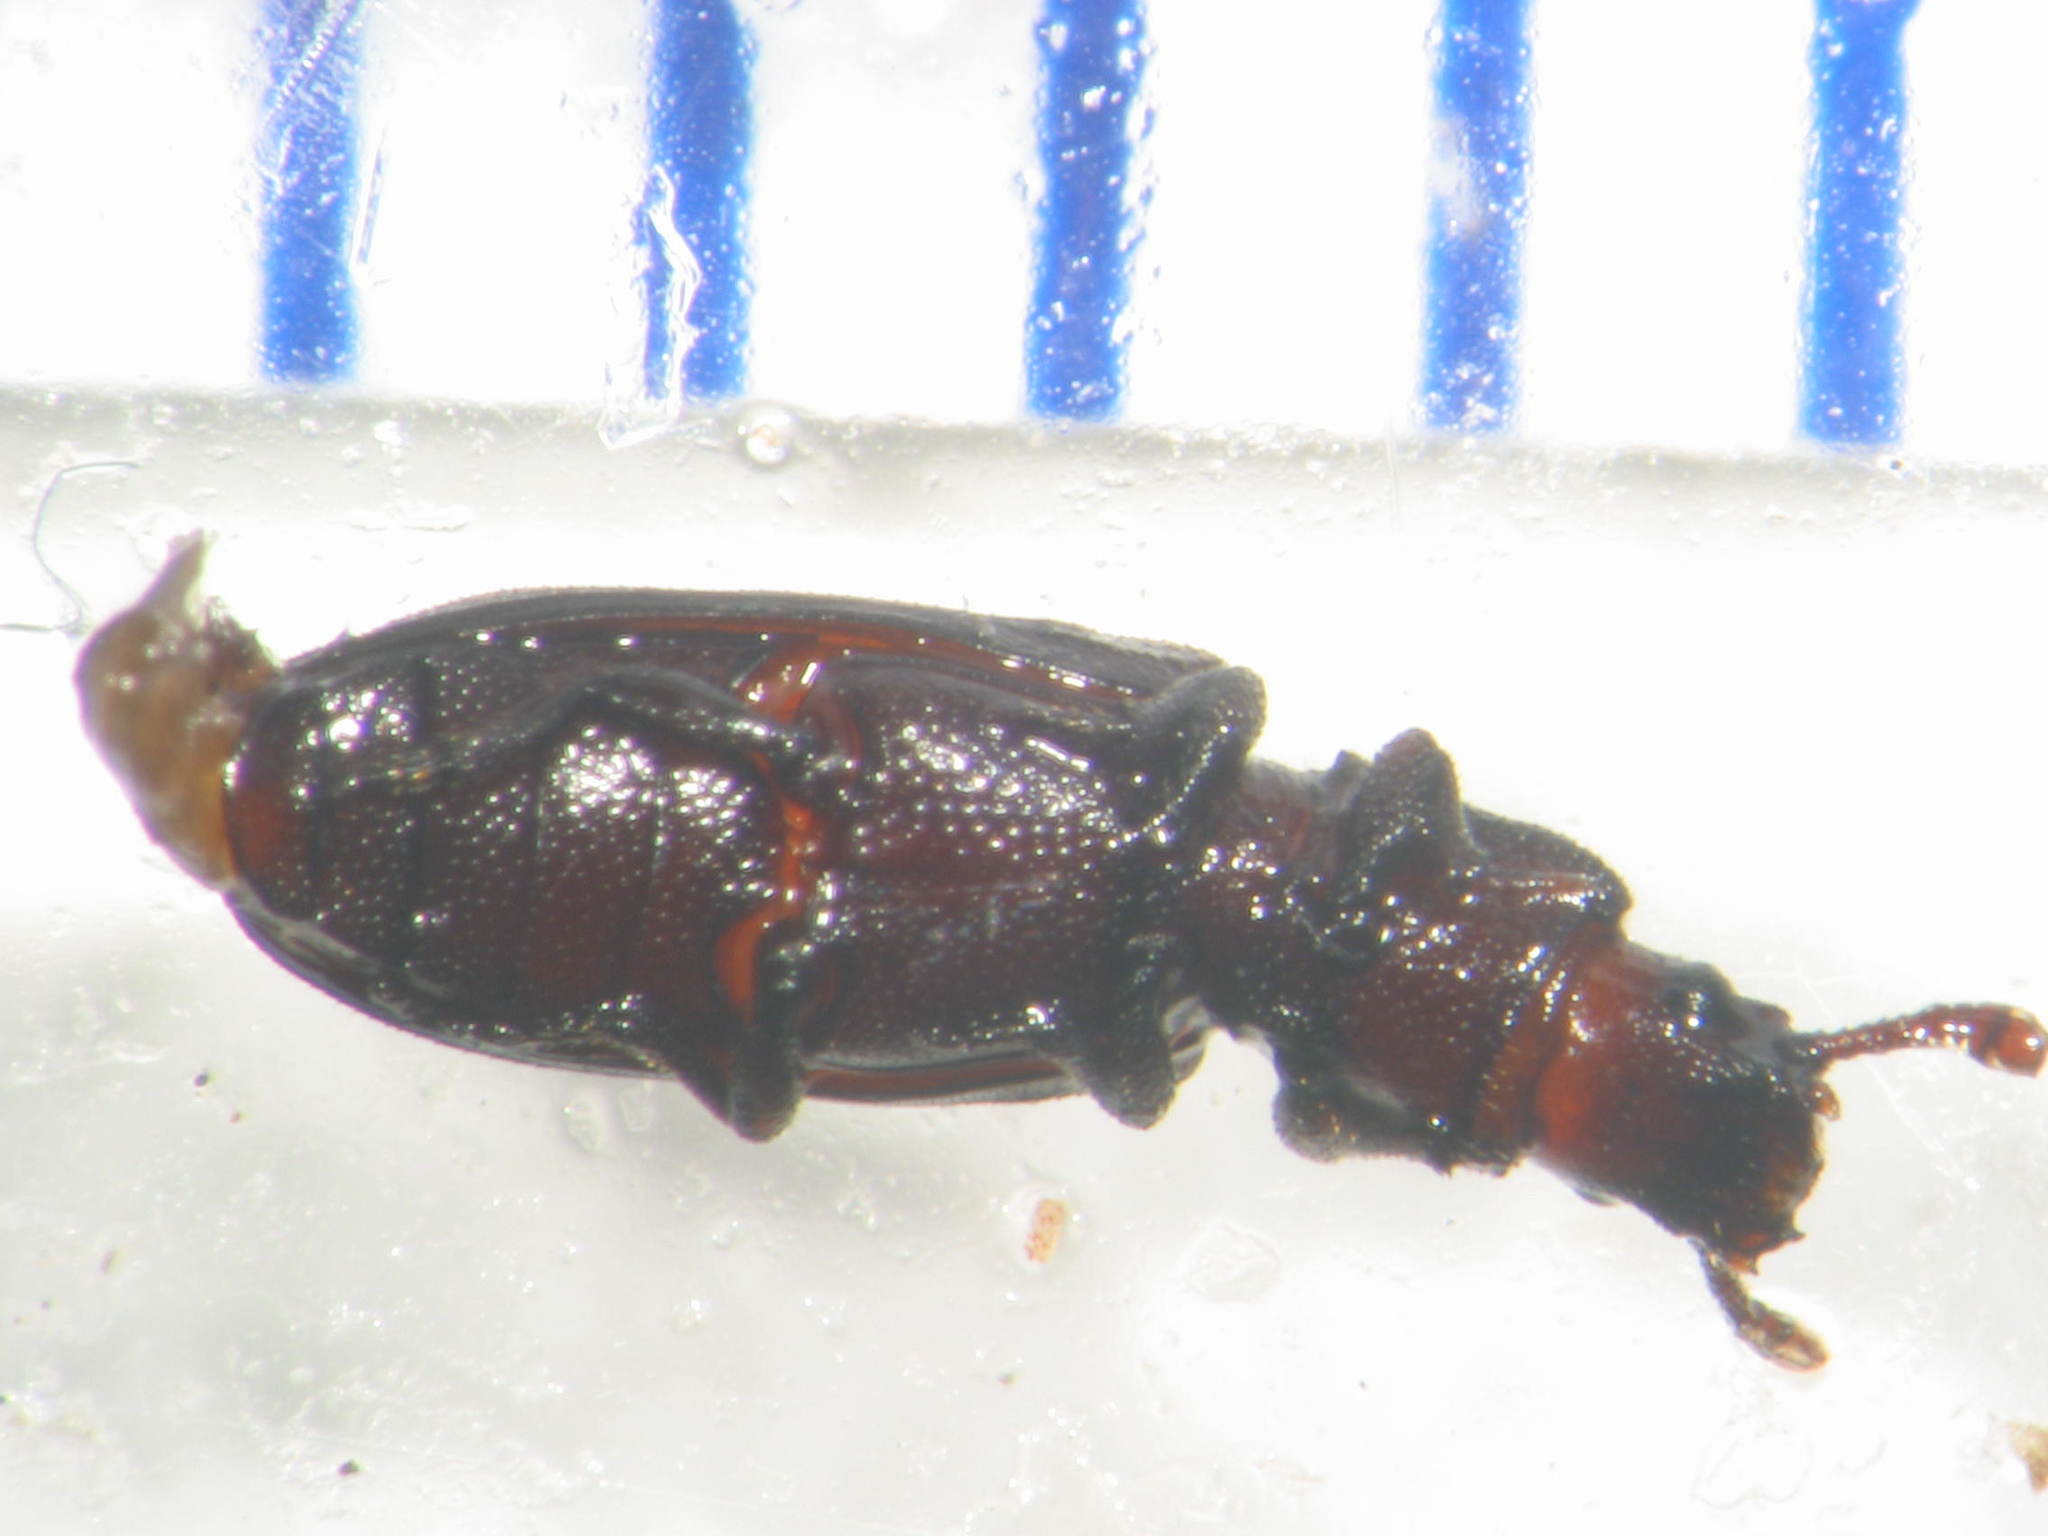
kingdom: Animalia
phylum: Arthropoda
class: Insecta
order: Coleoptera
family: Zopheridae
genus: Pycnomerus
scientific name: Pycnomerus
